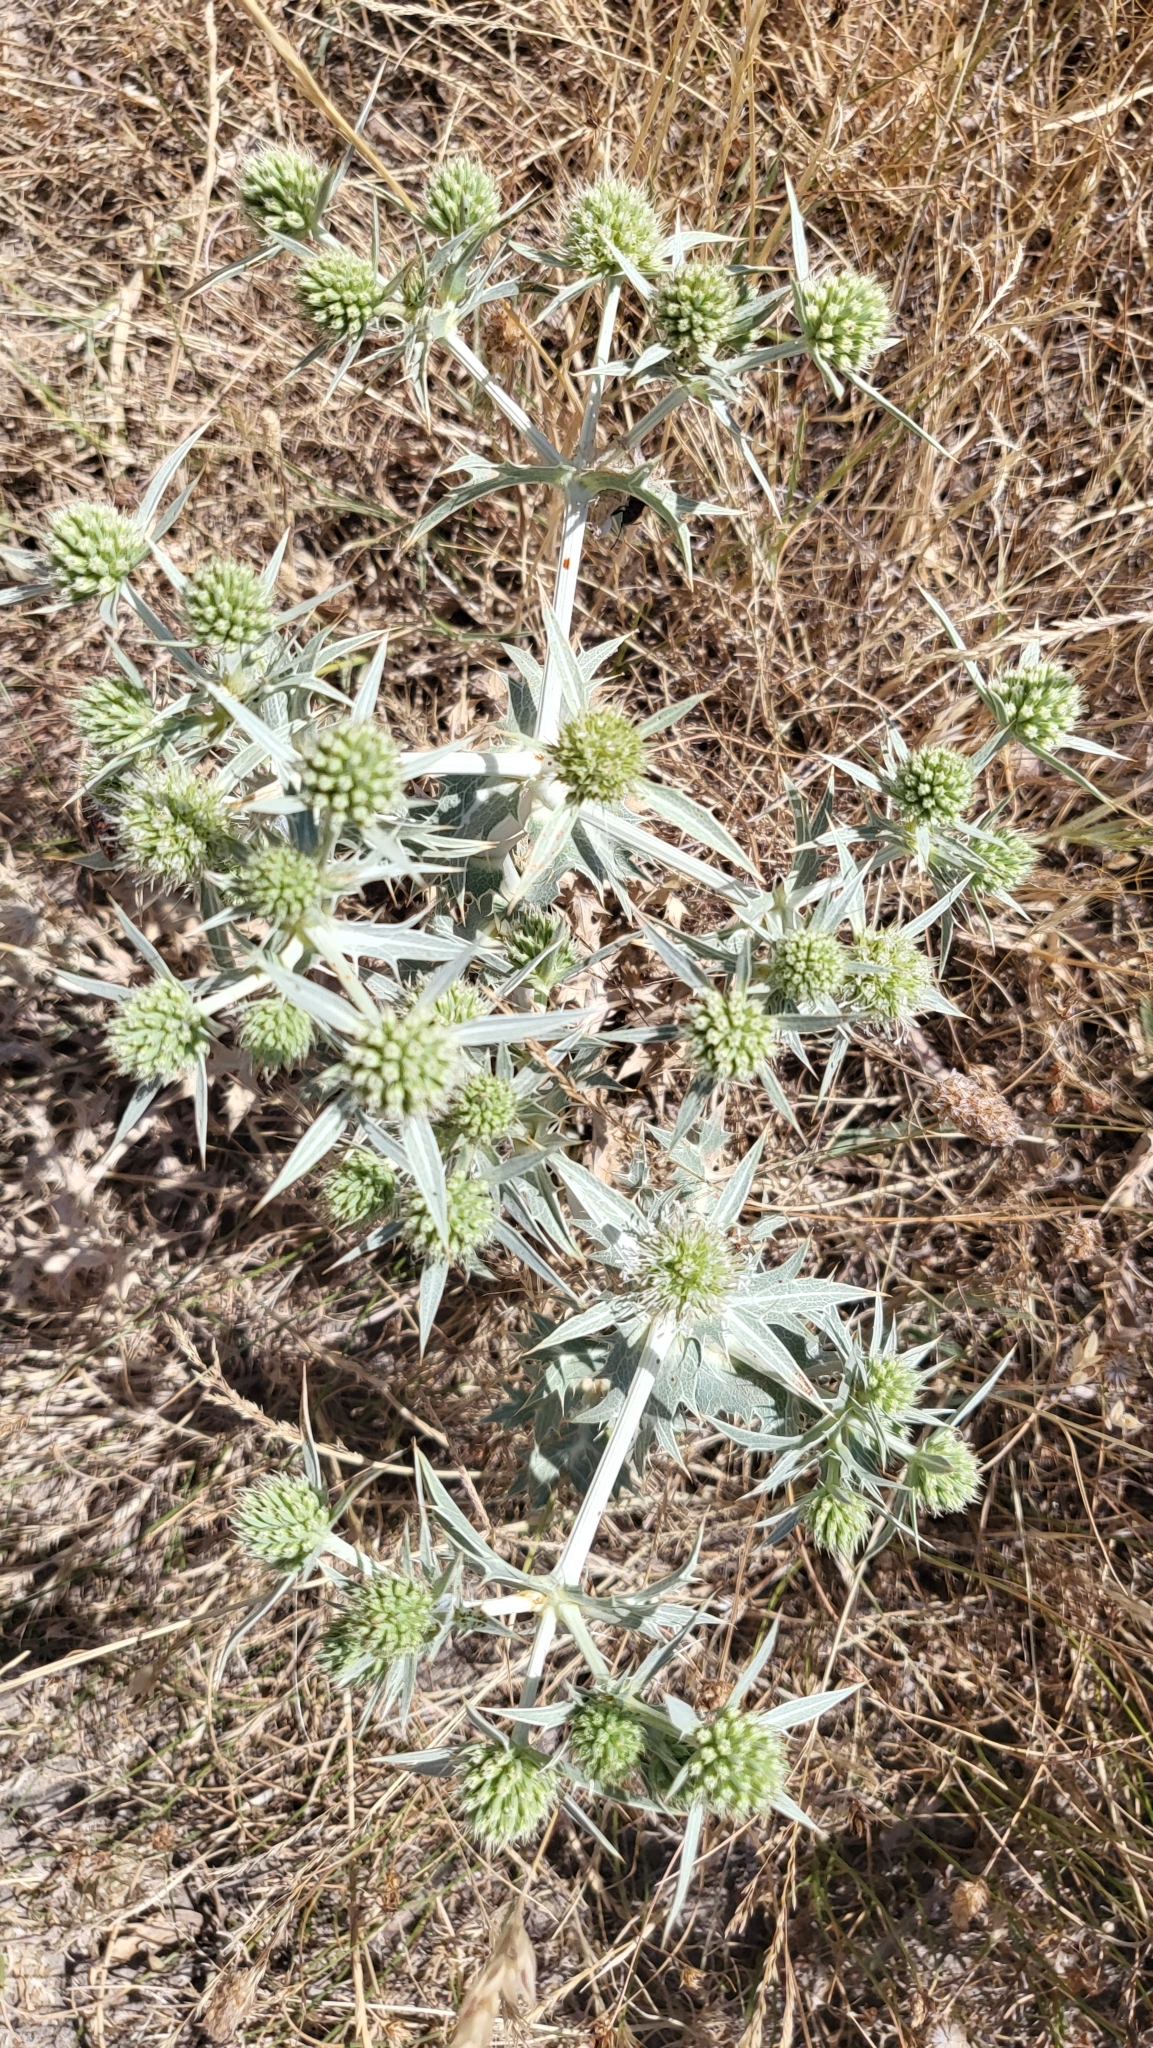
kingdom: Plantae
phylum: Tracheophyta
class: Magnoliopsida
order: Apiales
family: Apiaceae
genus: Eryngium
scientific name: Eryngium campestre
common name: Field eryngo
